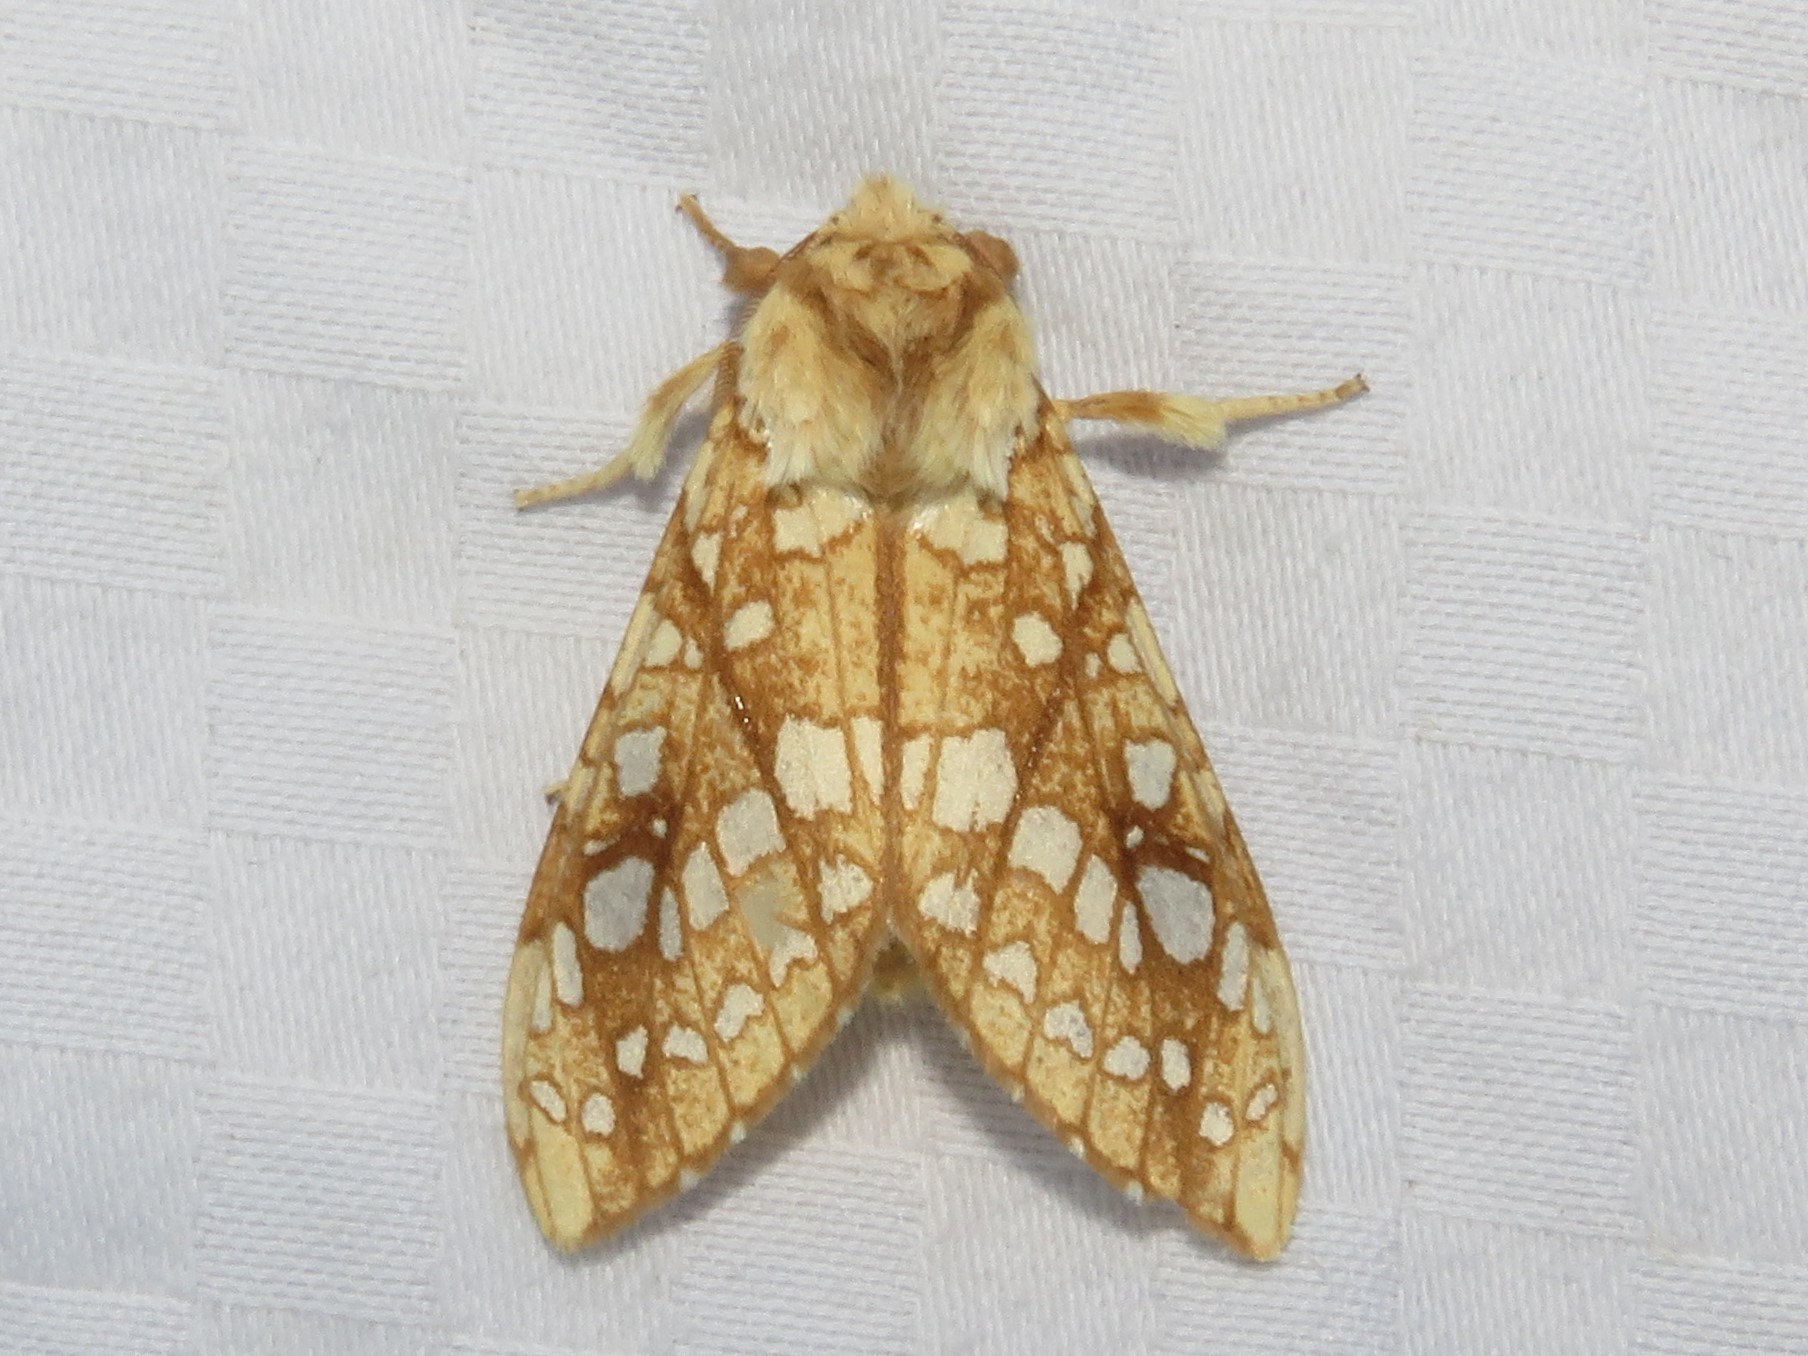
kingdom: Animalia
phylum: Arthropoda
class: Insecta
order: Lepidoptera
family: Erebidae
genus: Lophocampa
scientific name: Lophocampa caryae
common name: Hickory tussock moth
